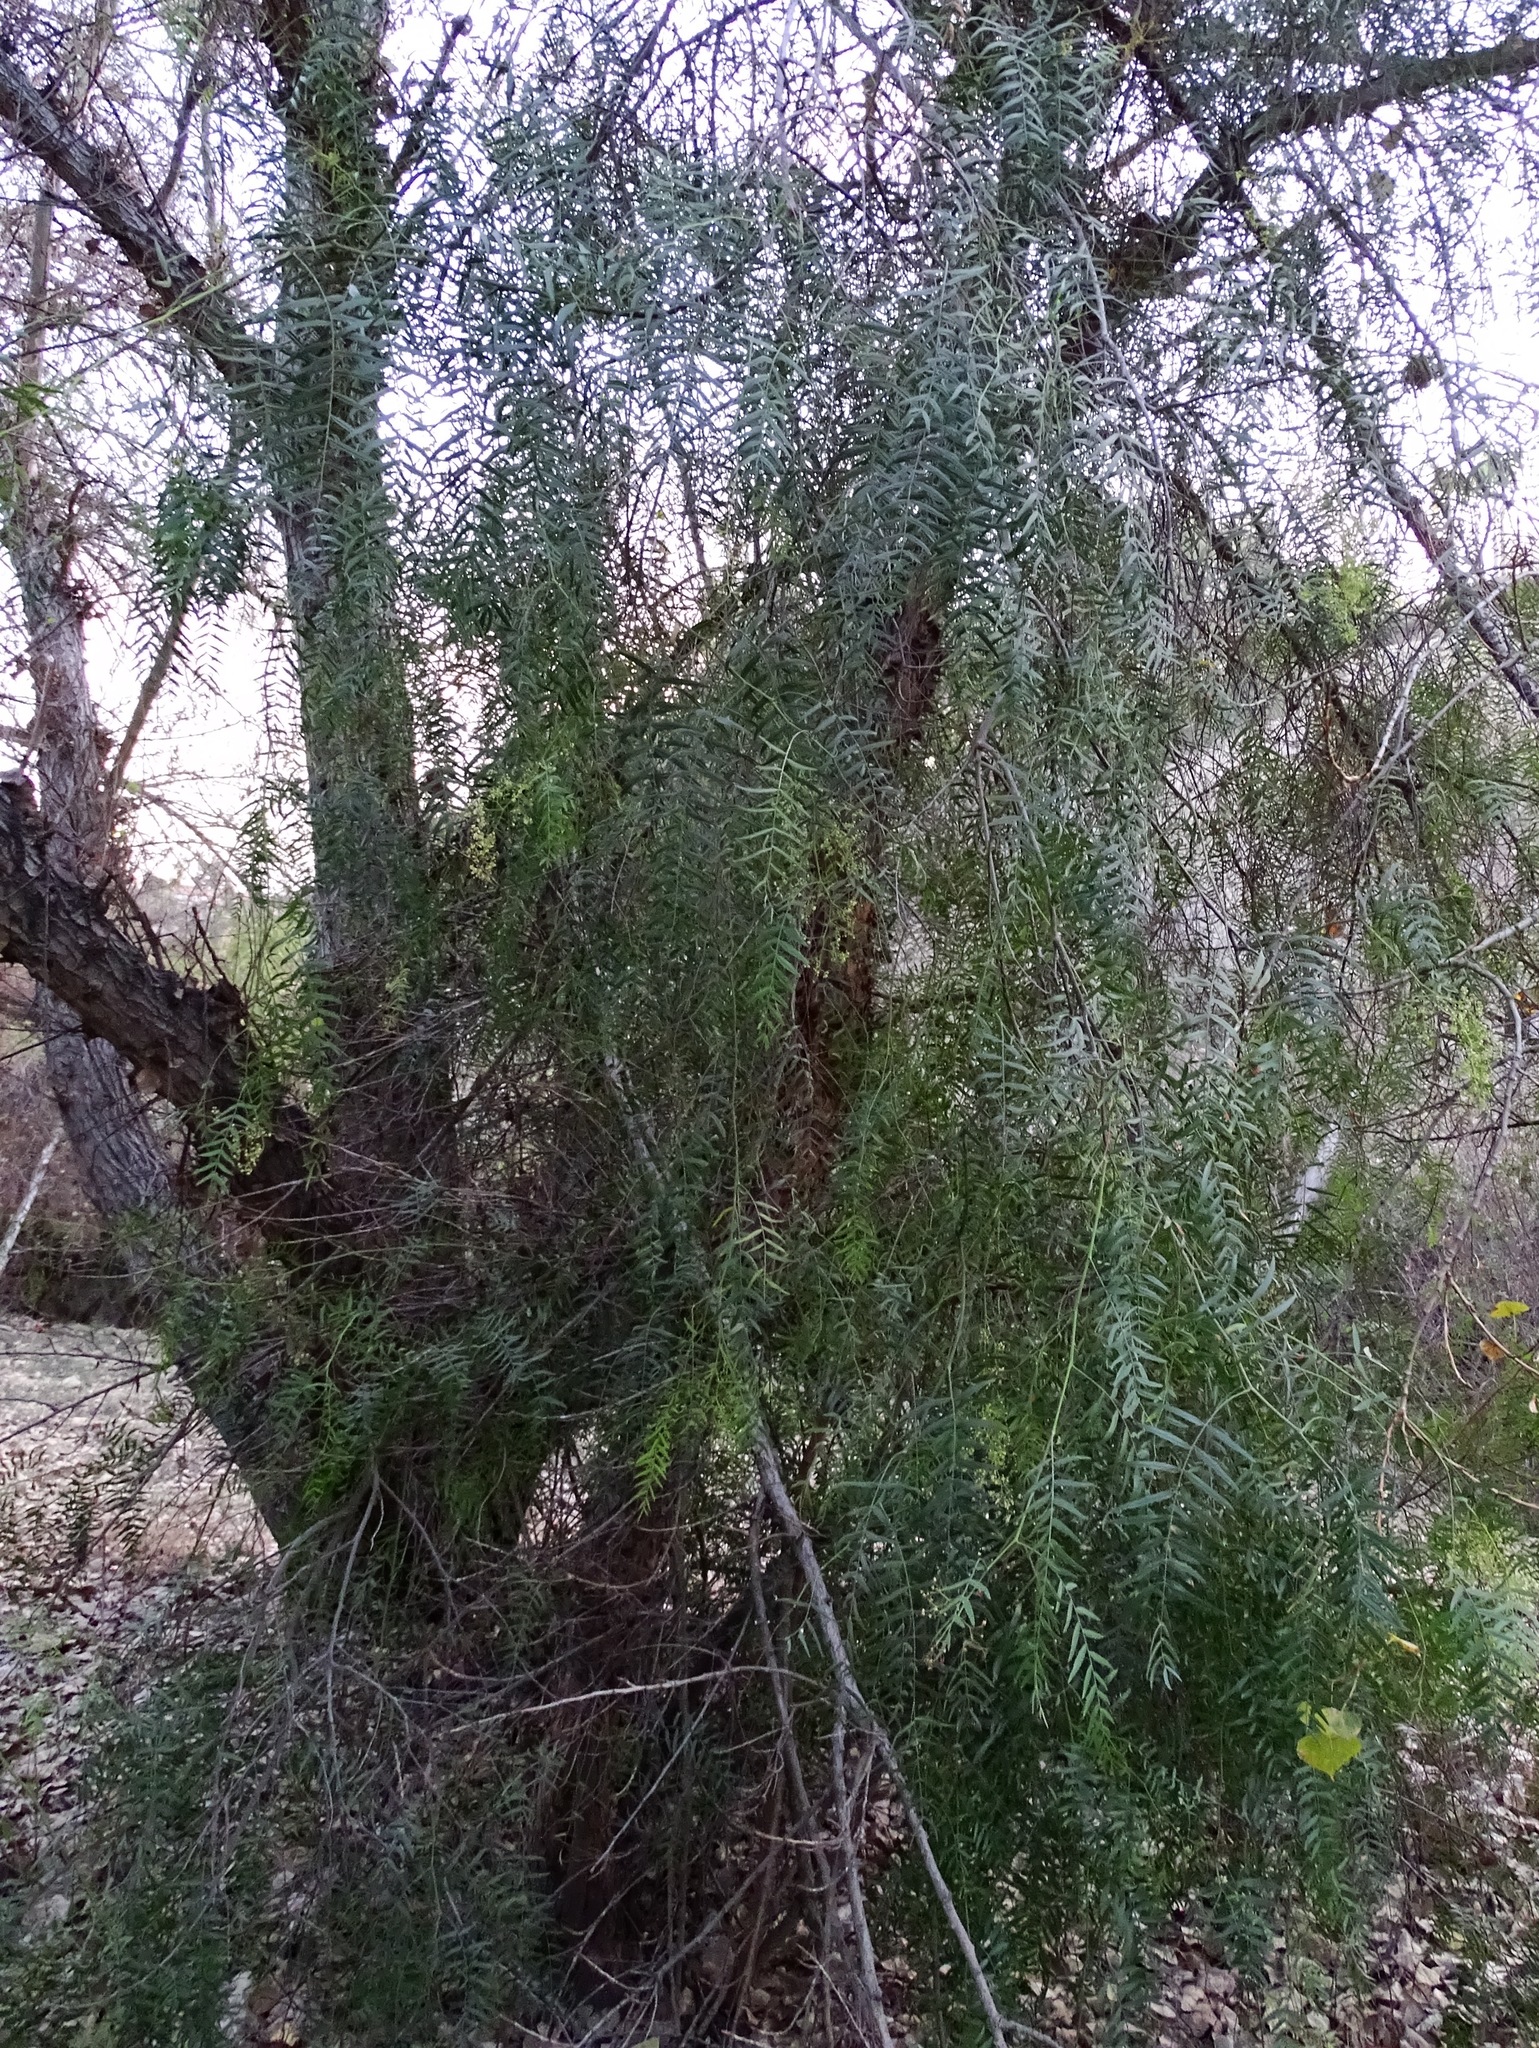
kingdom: Plantae
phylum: Tracheophyta
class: Magnoliopsida
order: Sapindales
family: Anacardiaceae
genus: Schinus
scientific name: Schinus molle
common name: Peruvian peppertree
